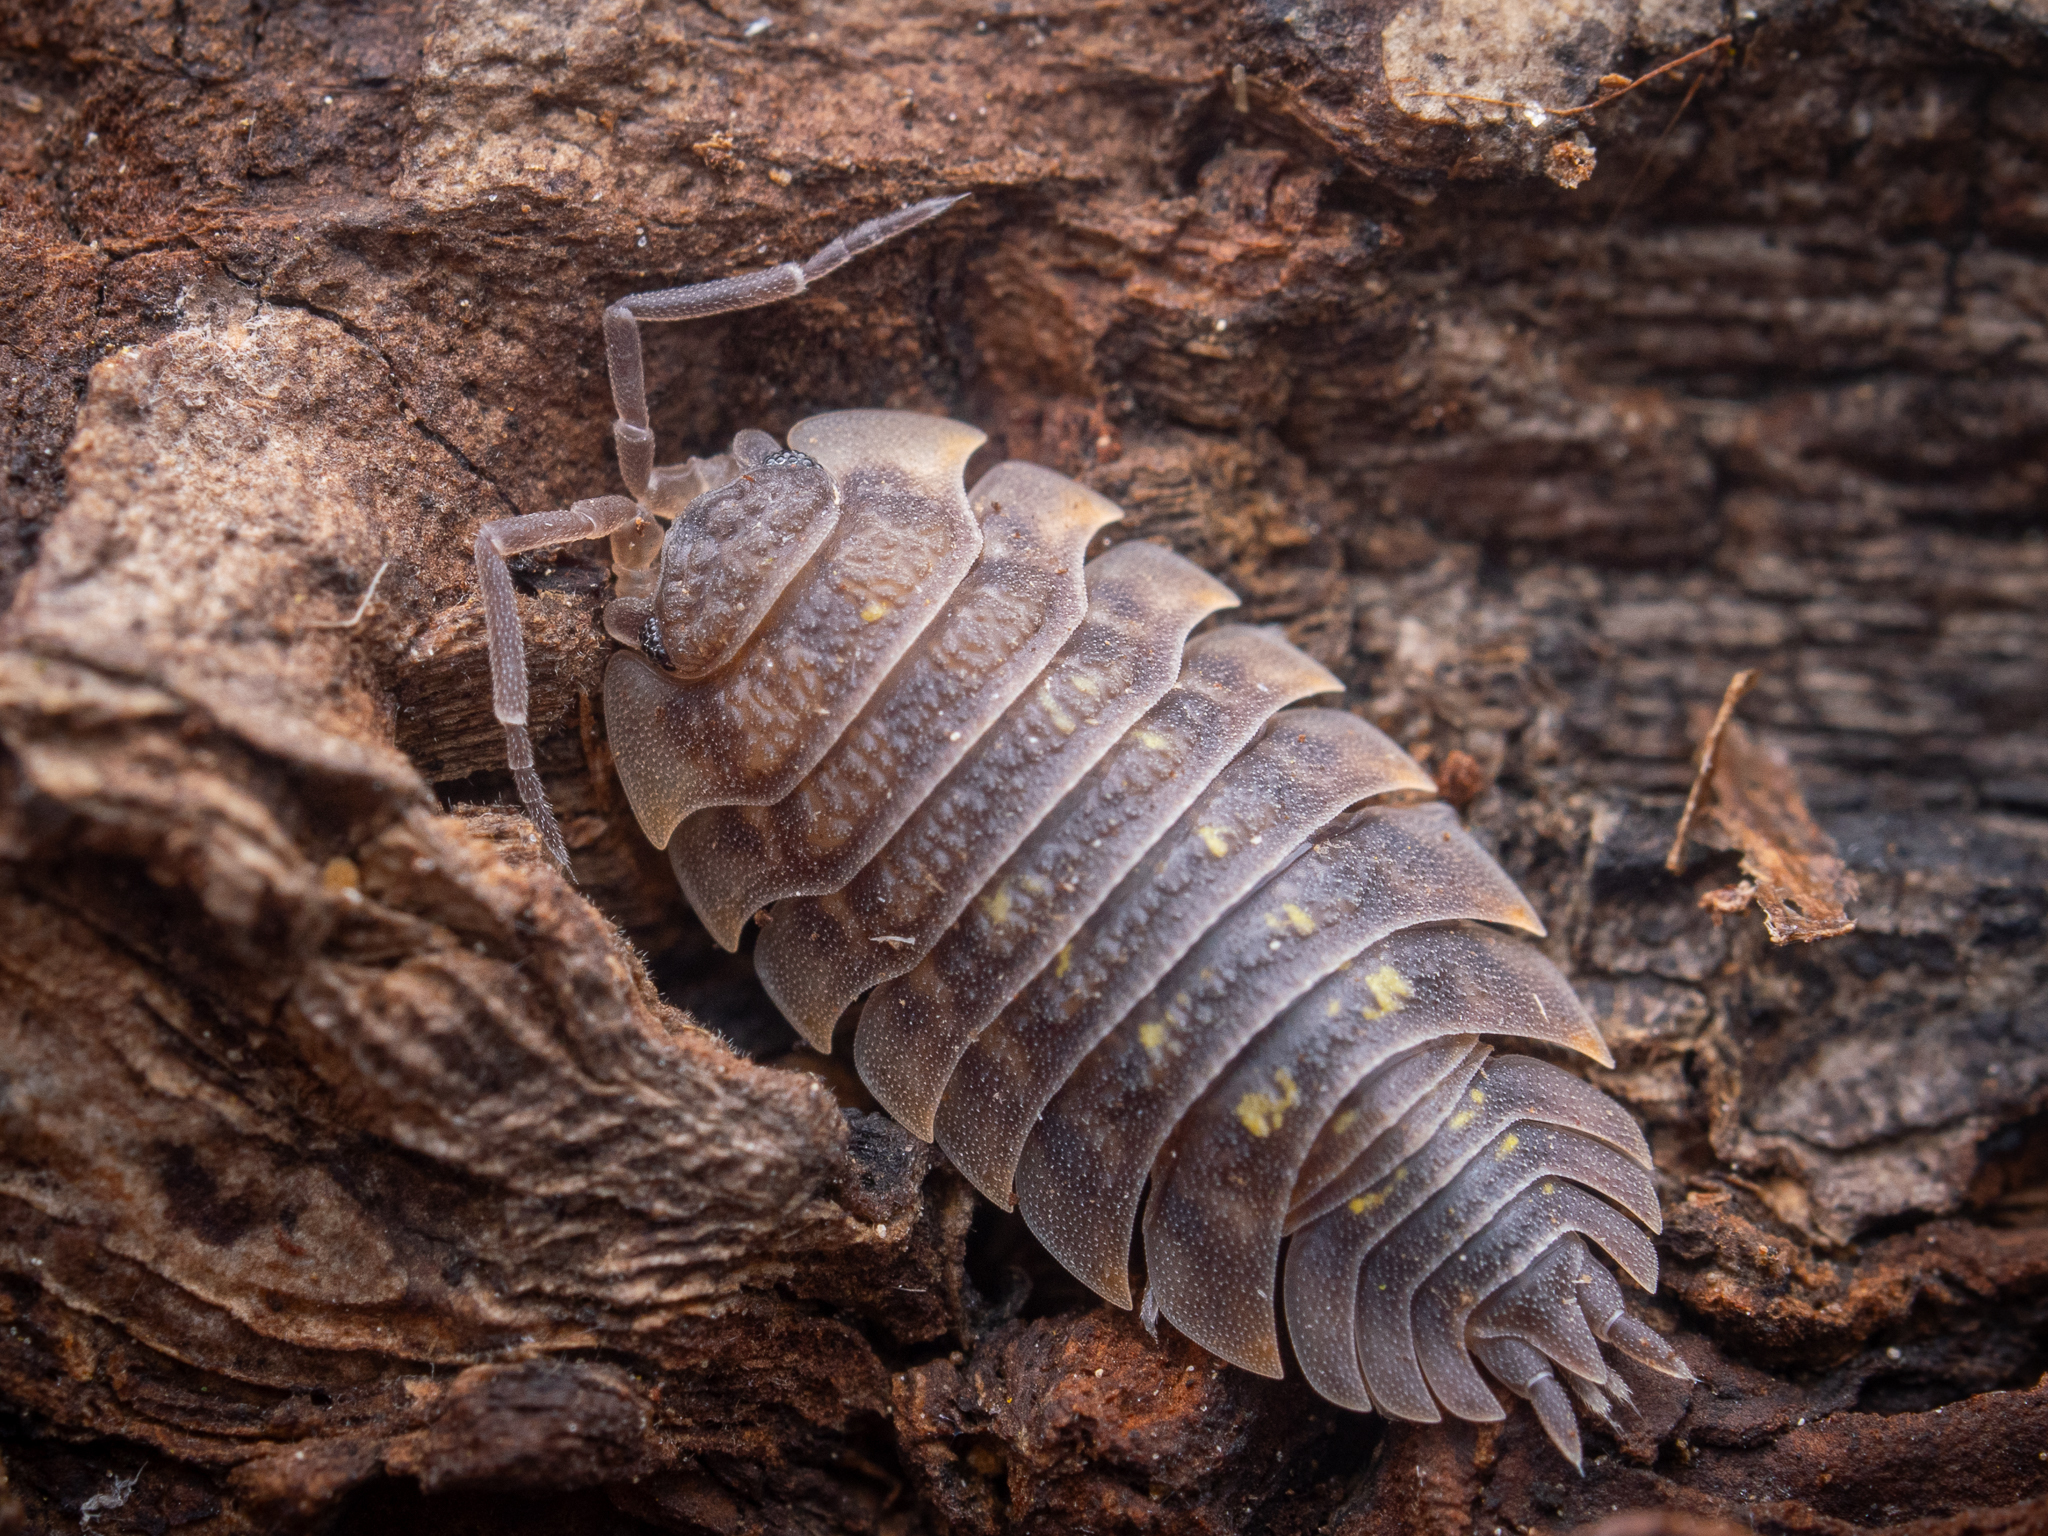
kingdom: Animalia
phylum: Arthropoda
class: Malacostraca
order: Isopoda
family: Oniscidae
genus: Oniscus
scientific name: Oniscus asellus
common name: Common shiny woodlouse
